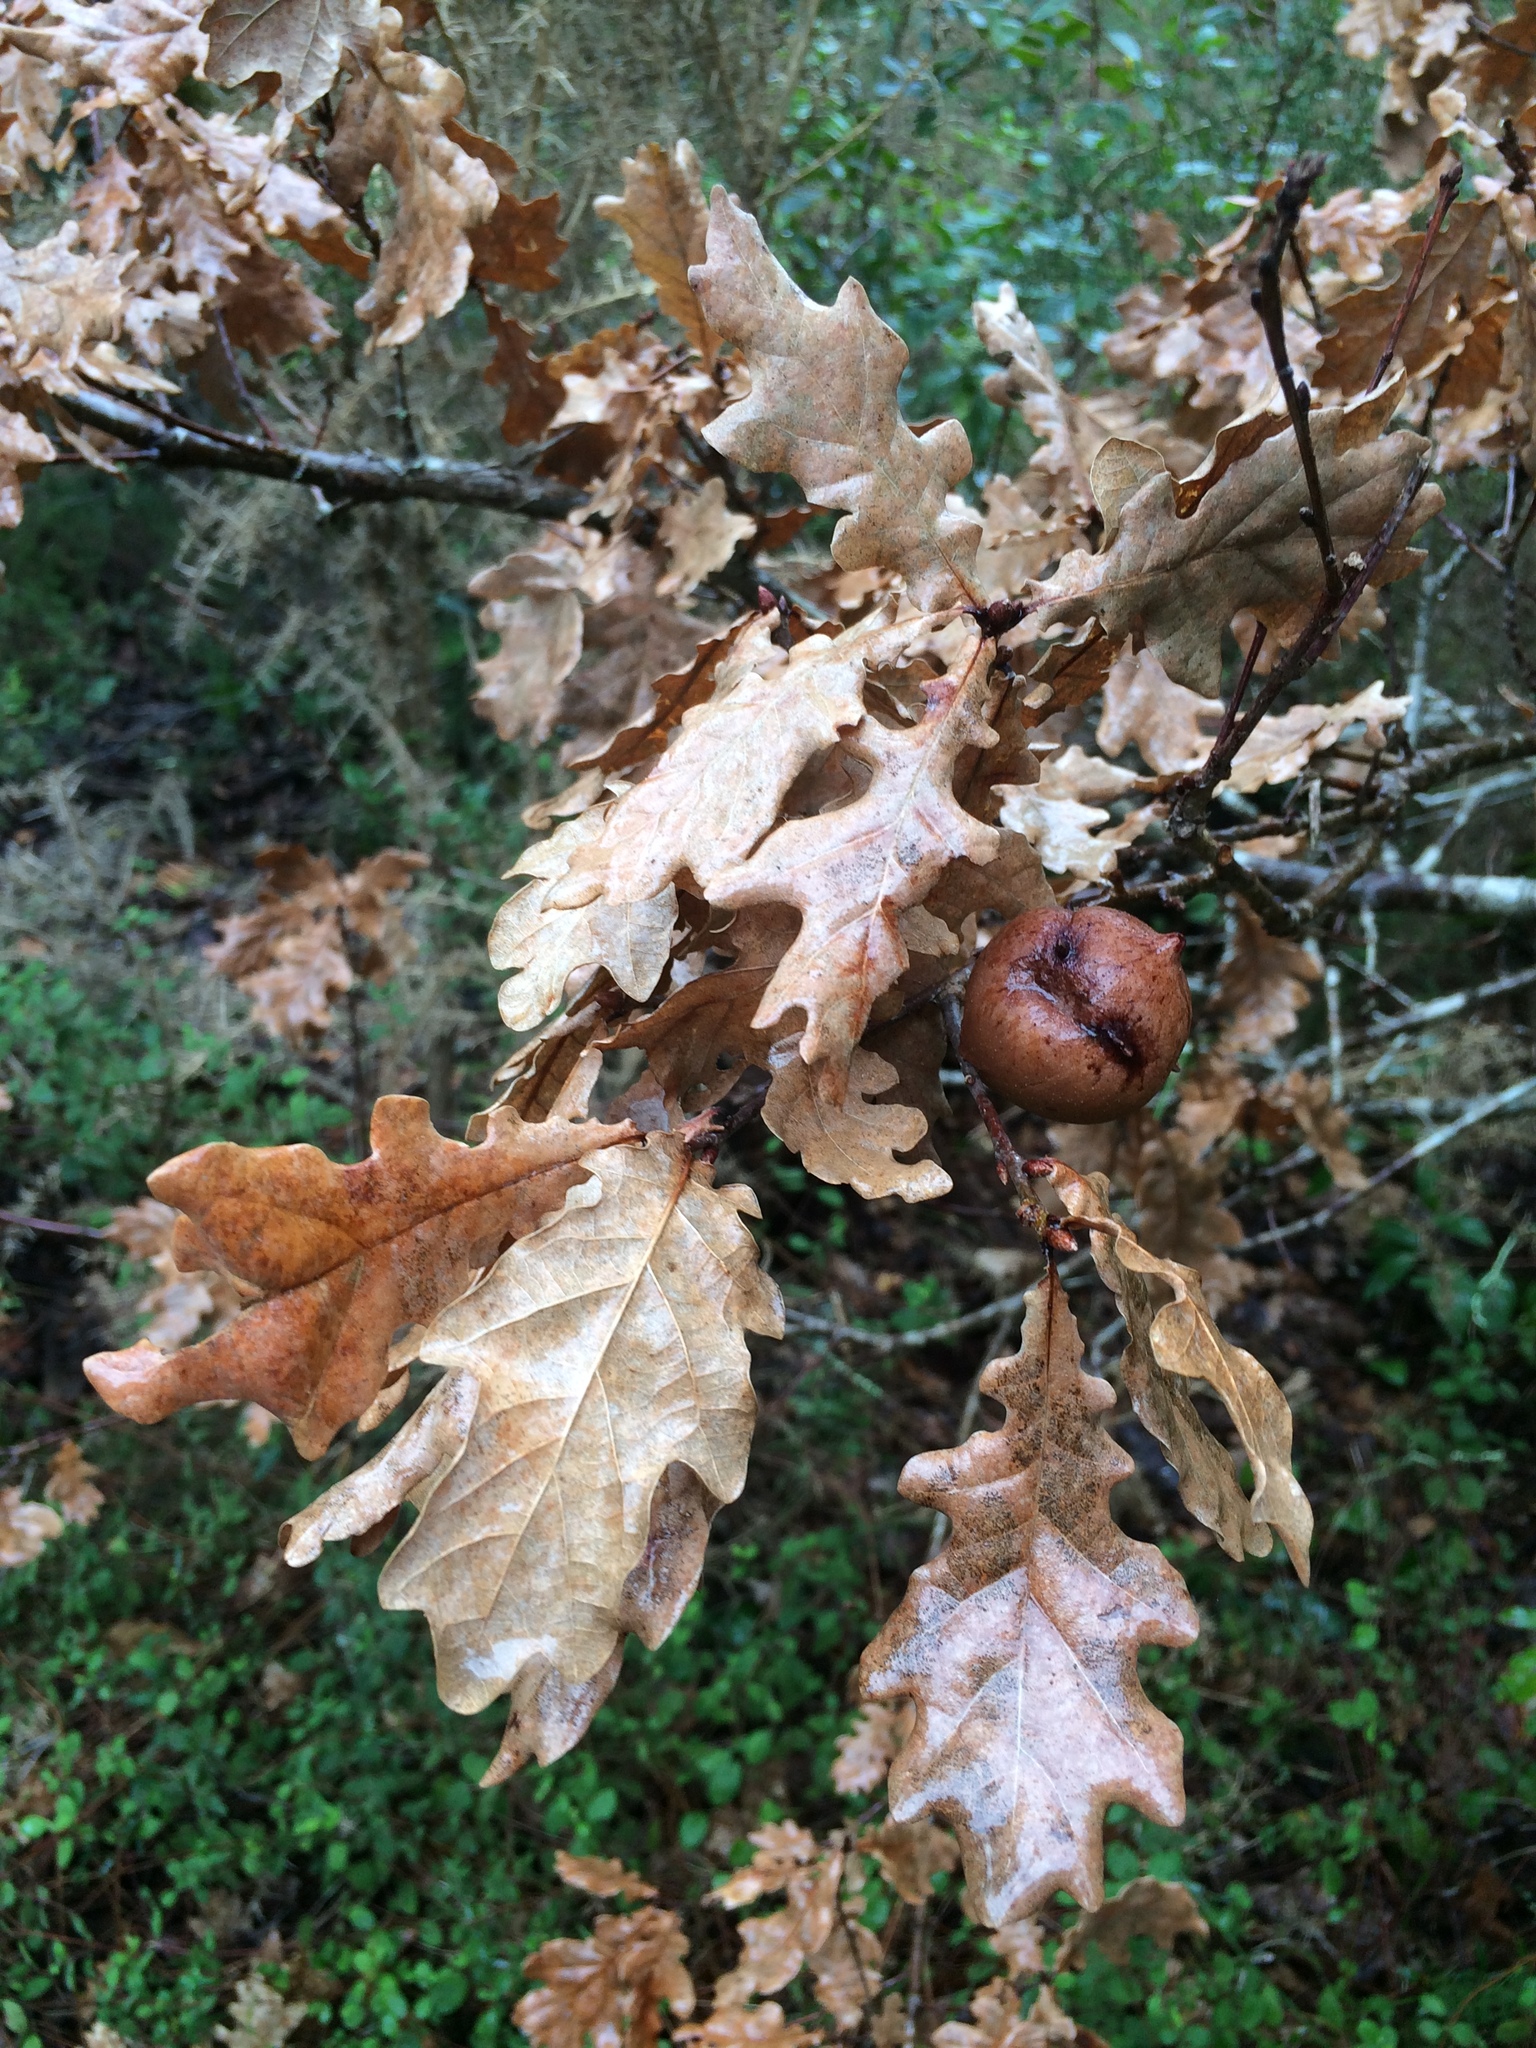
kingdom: Plantae
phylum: Tracheophyta
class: Magnoliopsida
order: Fagales
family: Fagaceae
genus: Quercus
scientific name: Quercus robur
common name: Pedunculate oak
